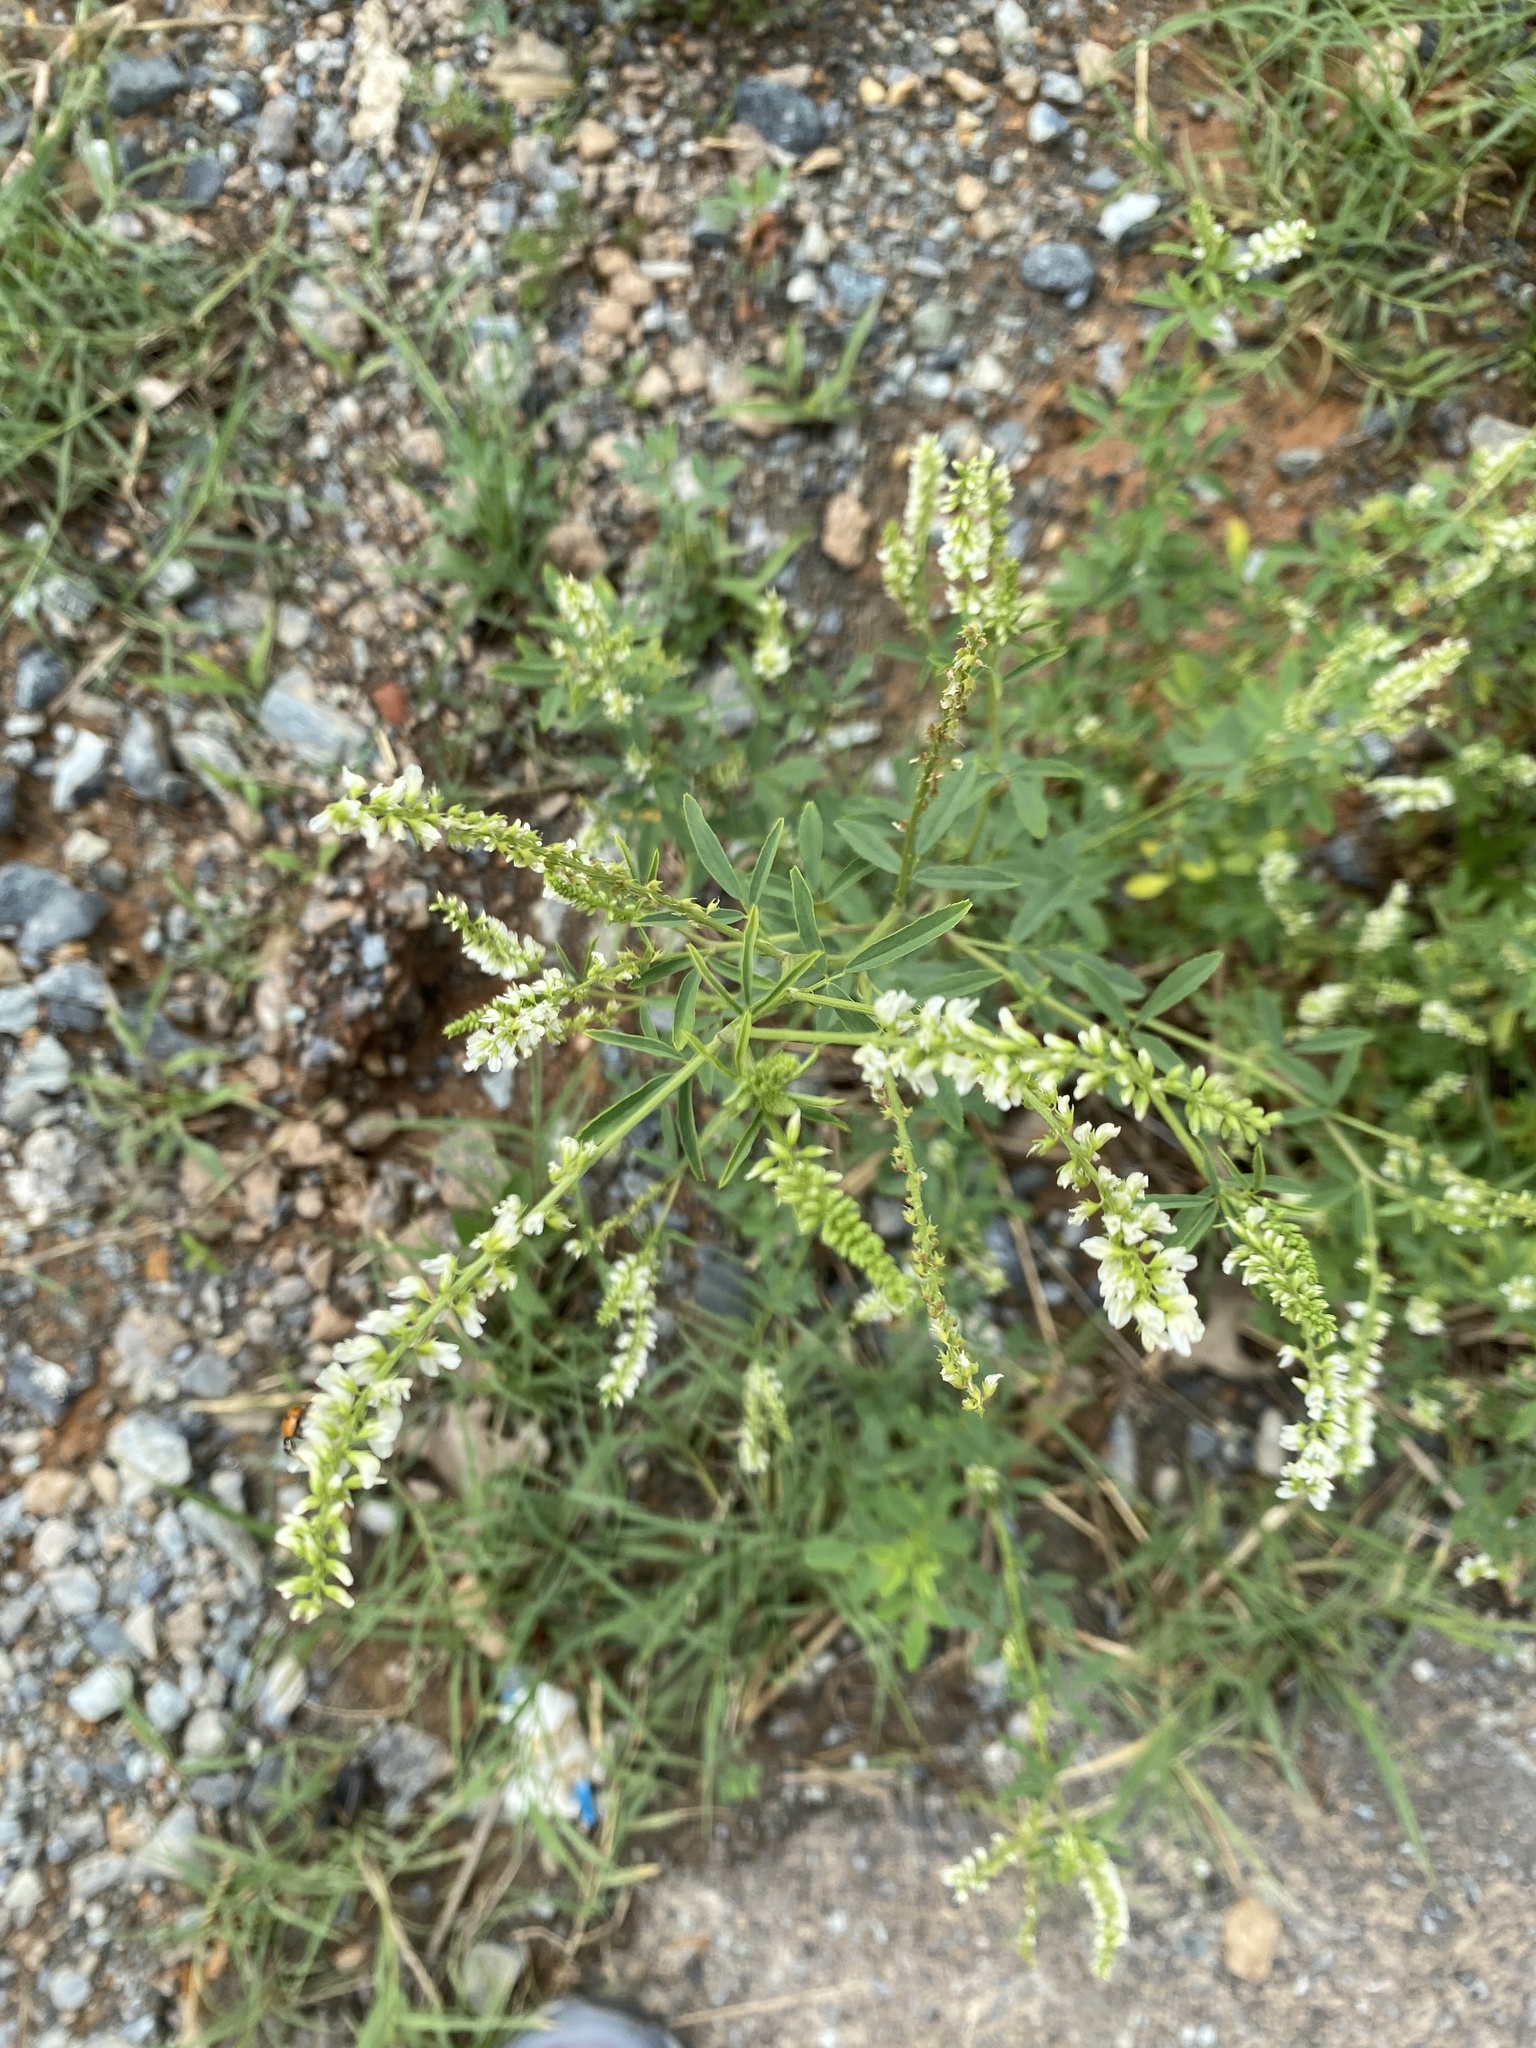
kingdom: Plantae
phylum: Tracheophyta
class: Magnoliopsida
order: Fabales
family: Fabaceae
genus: Melilotus
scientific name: Melilotus albus
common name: White melilot
